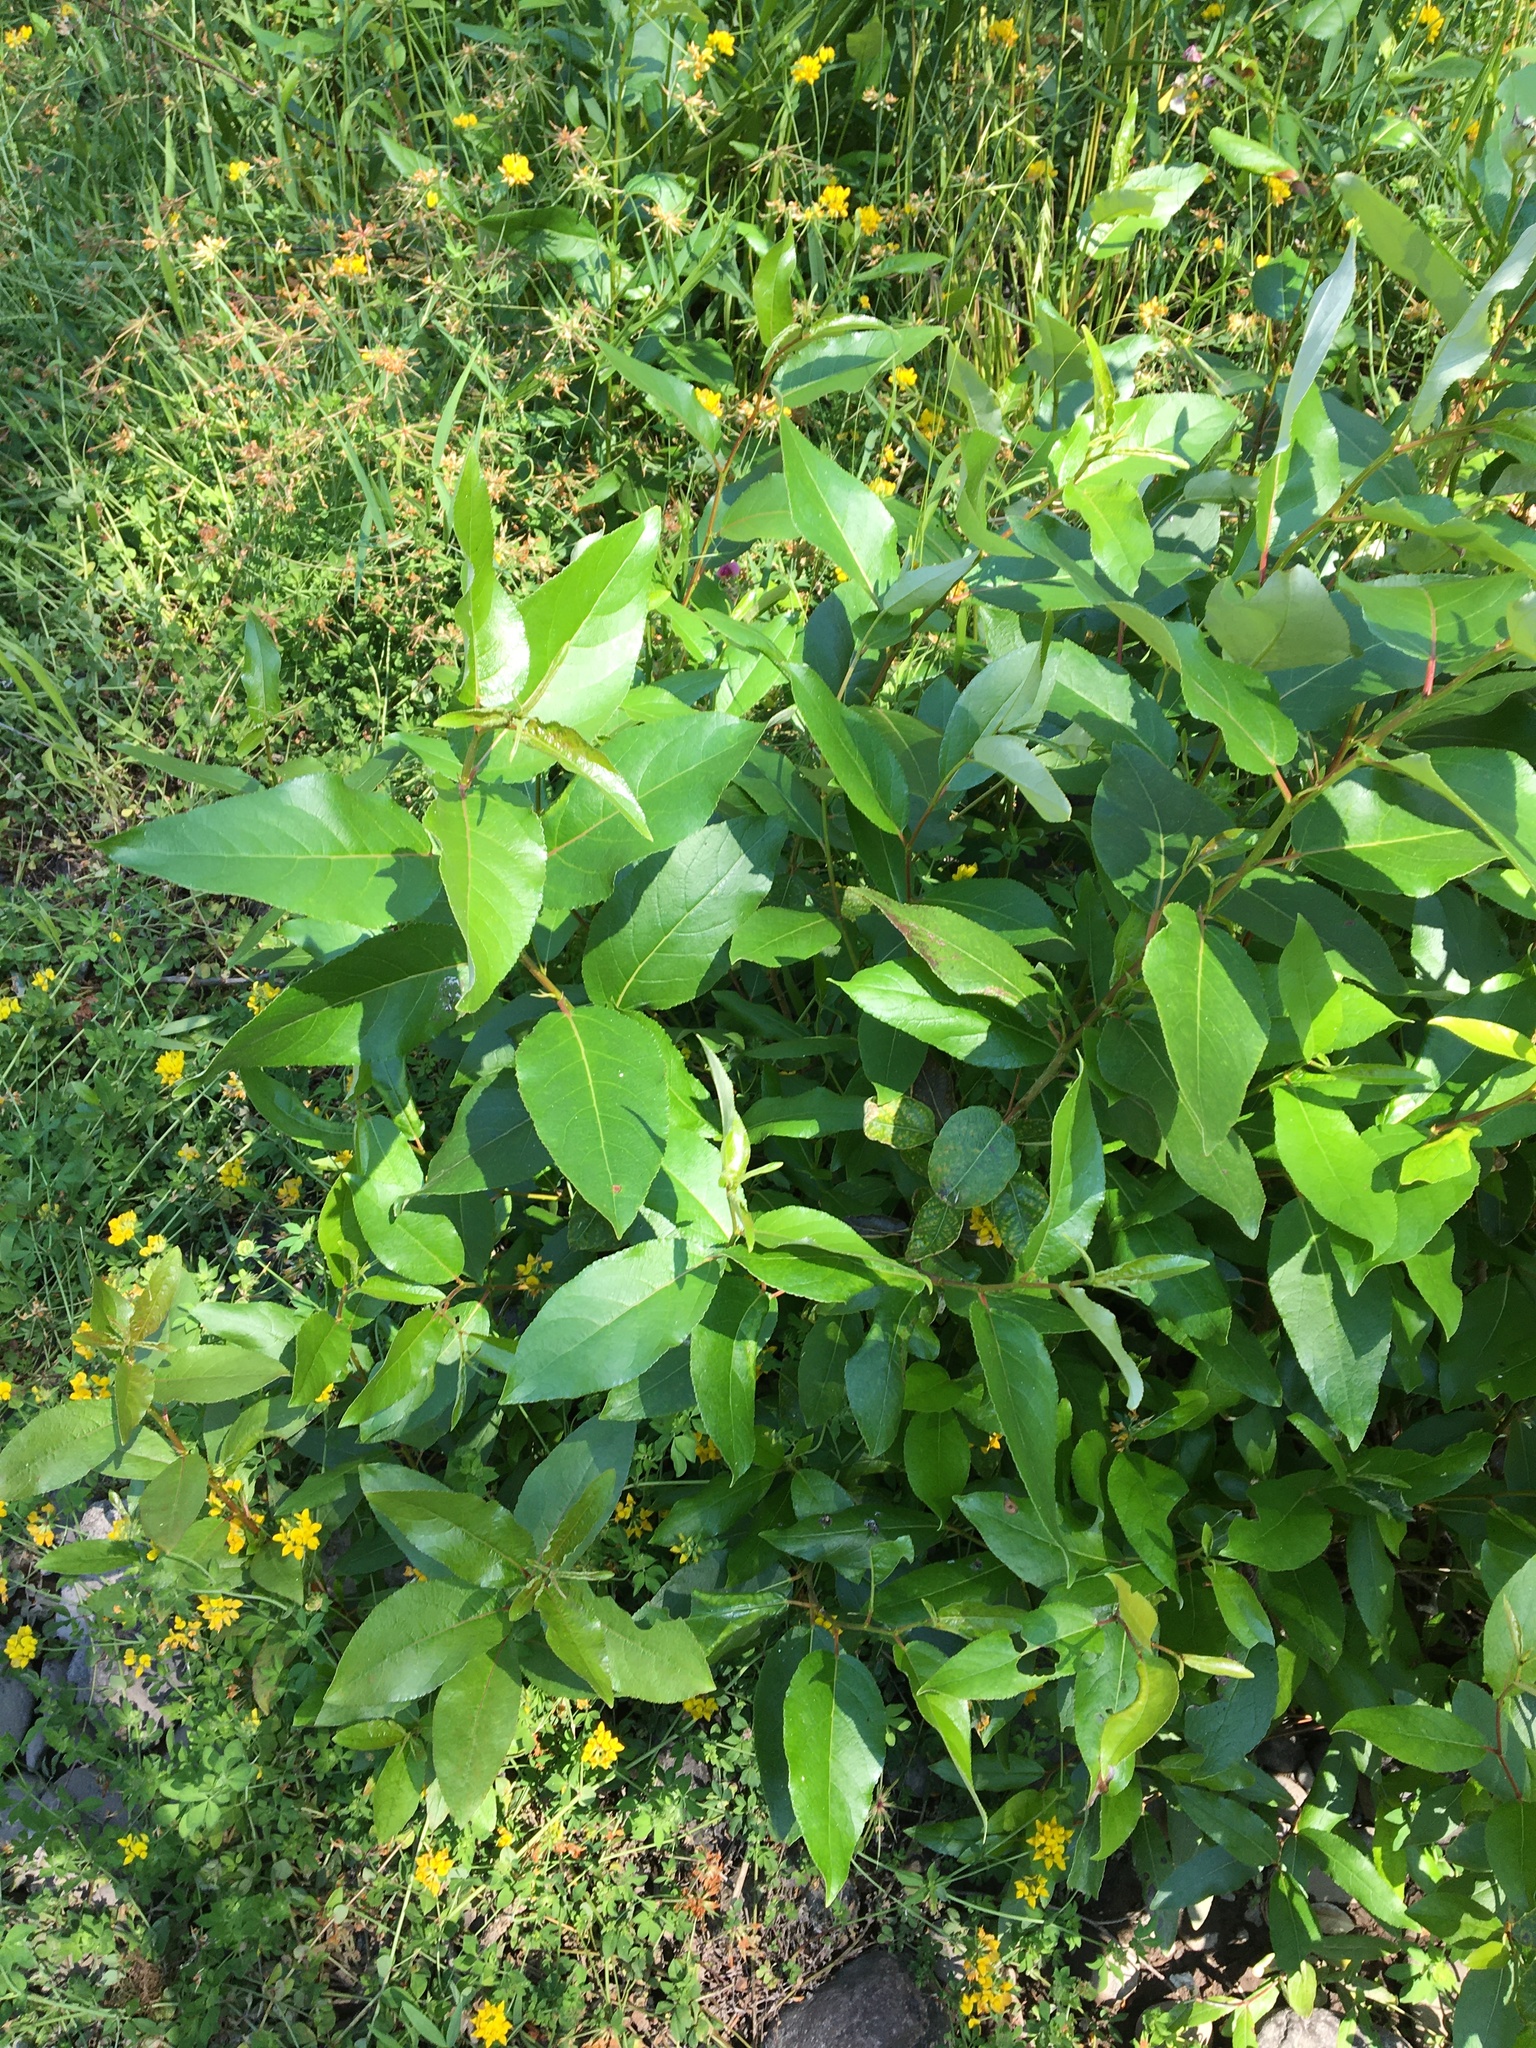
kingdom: Plantae
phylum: Tracheophyta
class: Magnoliopsida
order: Malpighiales
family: Salicaceae
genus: Populus
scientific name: Populus trichocarpa
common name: Black cottonwood
